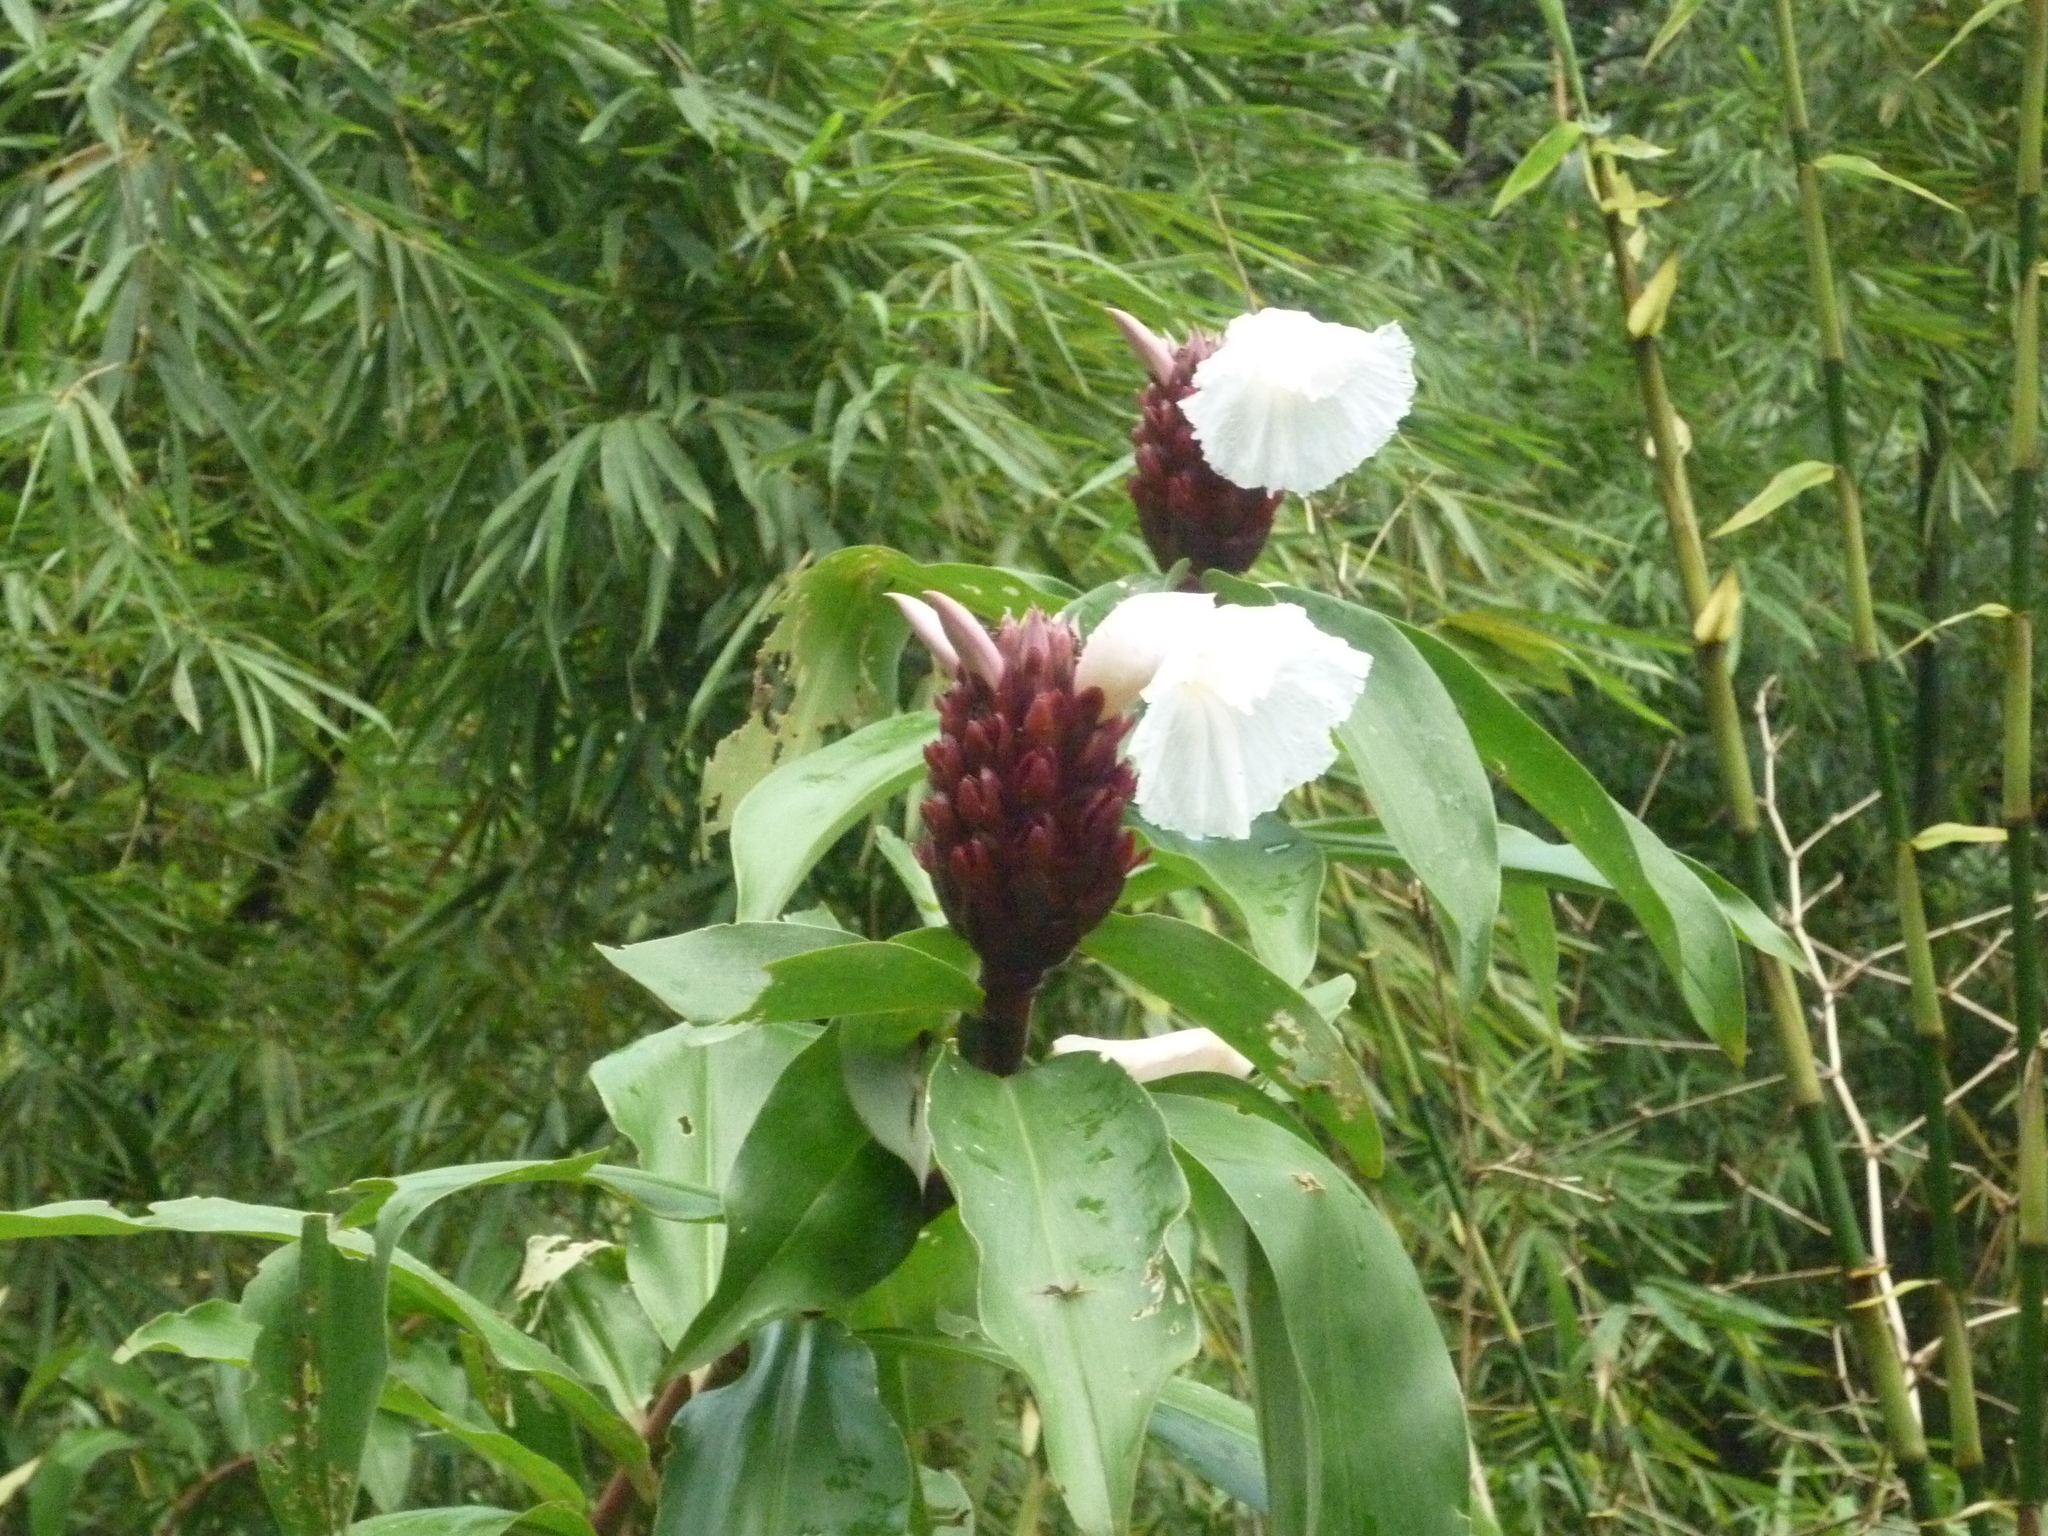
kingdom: Plantae
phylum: Tracheophyta
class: Liliopsida
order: Zingiberales
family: Costaceae
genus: Hellenia
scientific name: Hellenia speciosa
